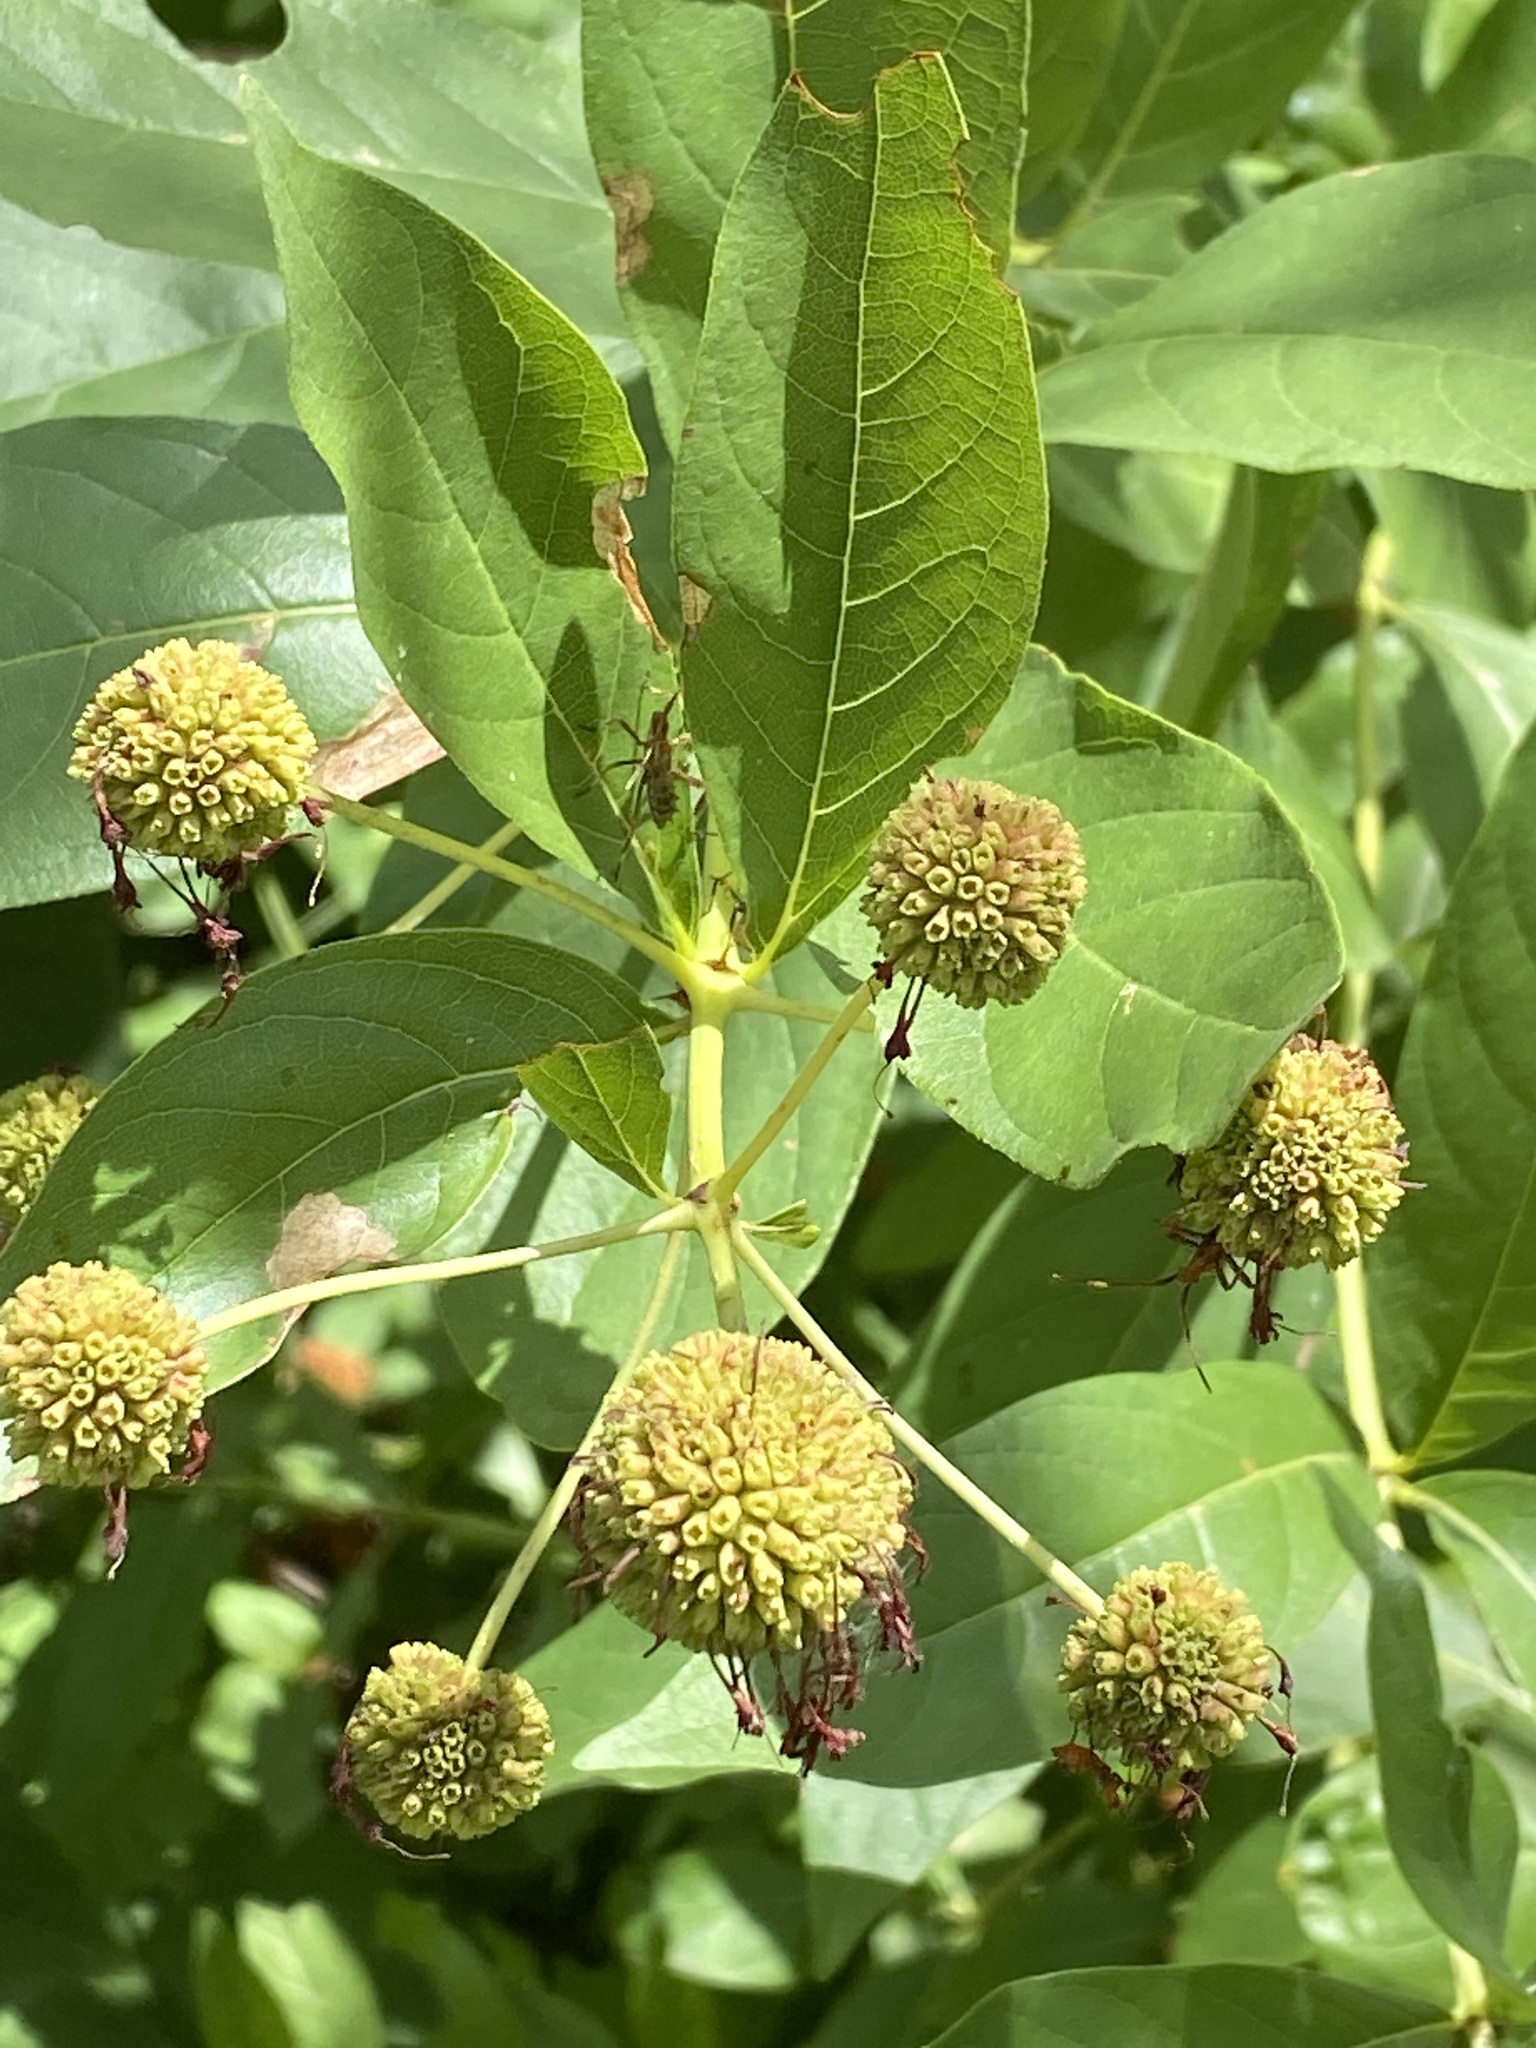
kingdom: Plantae
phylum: Tracheophyta
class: Magnoliopsida
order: Gentianales
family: Rubiaceae
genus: Cephalanthus
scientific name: Cephalanthus occidentalis
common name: Button-willow
